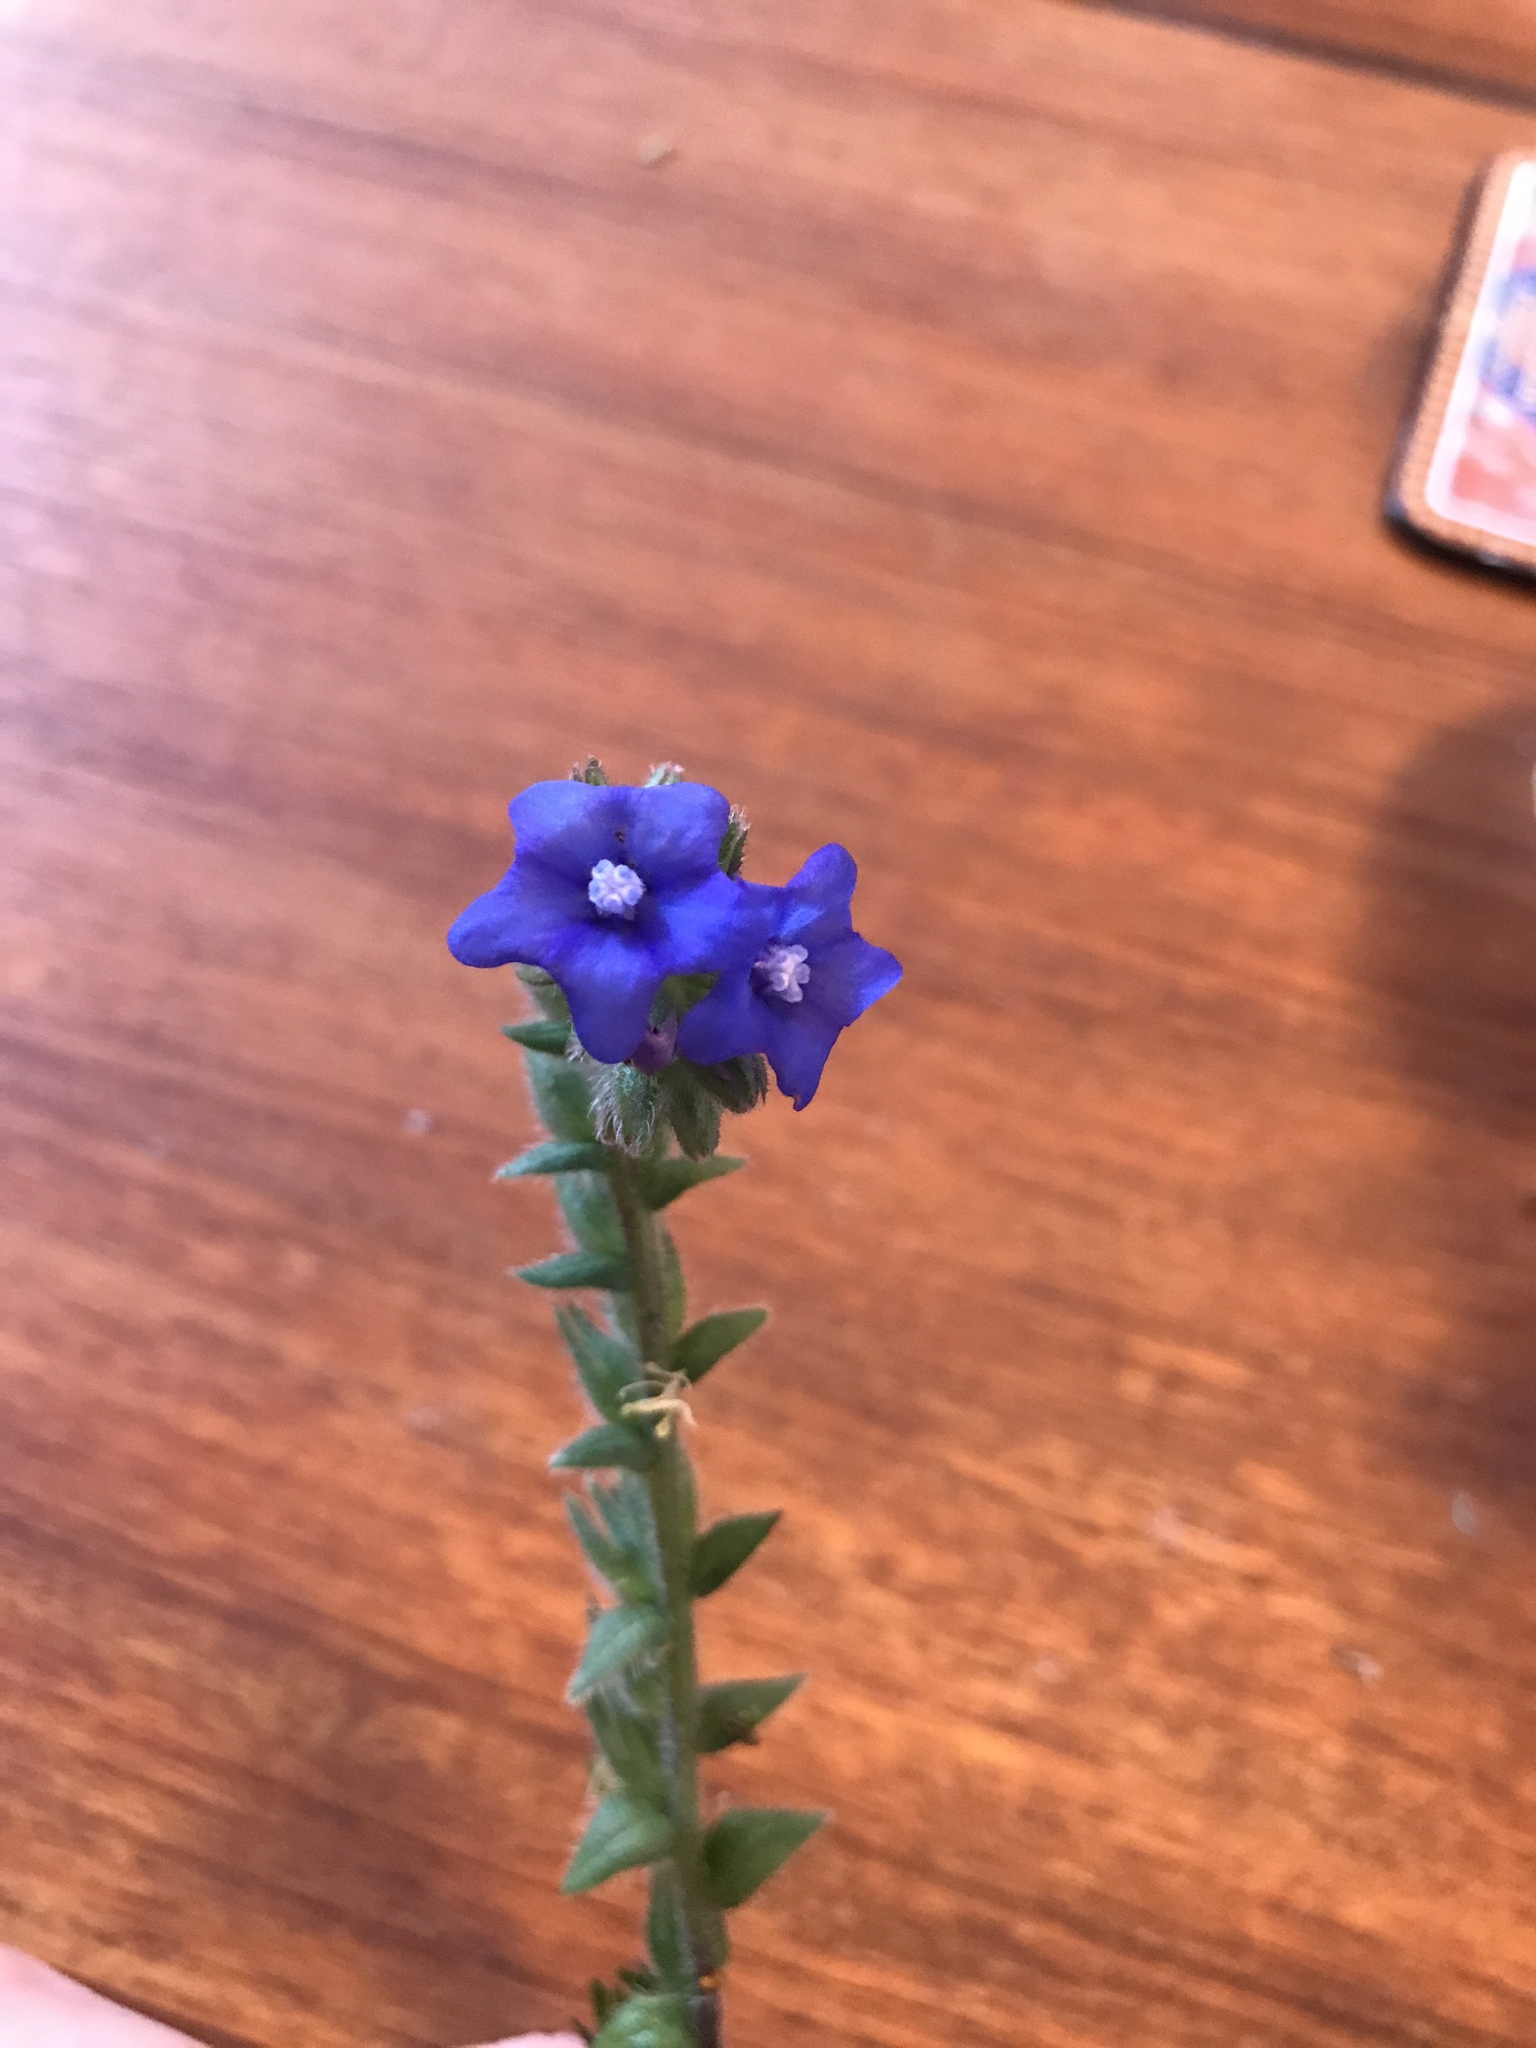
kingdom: Plantae
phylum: Tracheophyta
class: Magnoliopsida
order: Boraginales
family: Boraginaceae
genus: Anchusa
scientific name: Anchusa officinalis
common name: Alkanet
